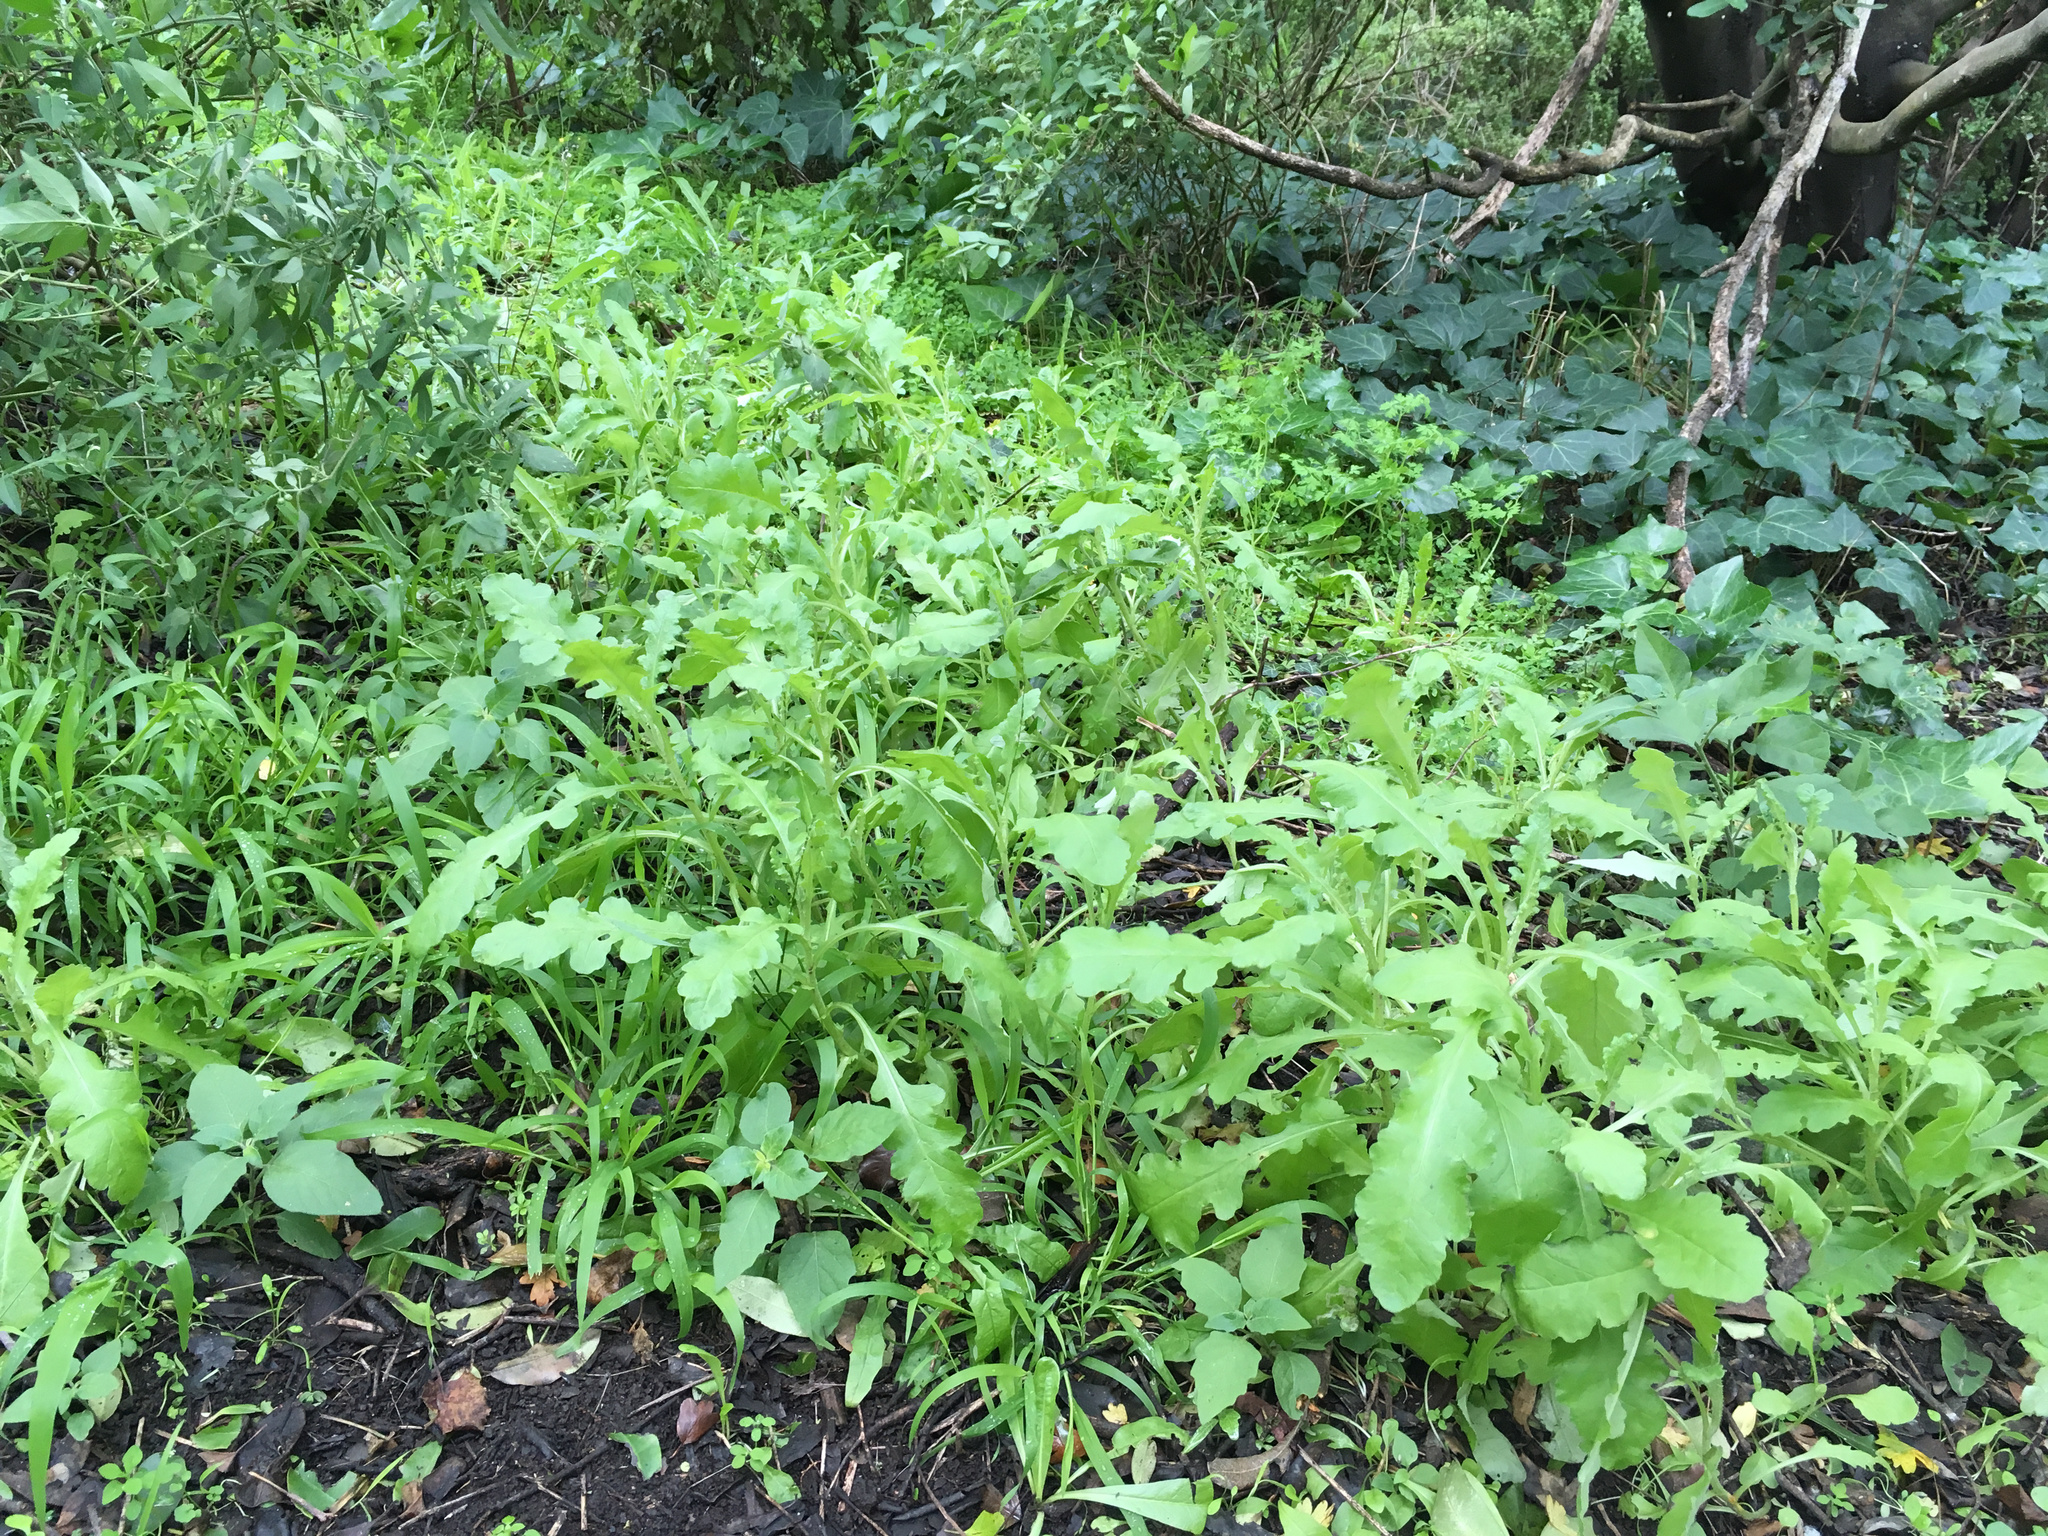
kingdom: Plantae
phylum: Tracheophyta
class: Magnoliopsida
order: Asterales
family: Asteraceae
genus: Senecio
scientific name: Senecio glomeratus
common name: Cutleaf burnweed
